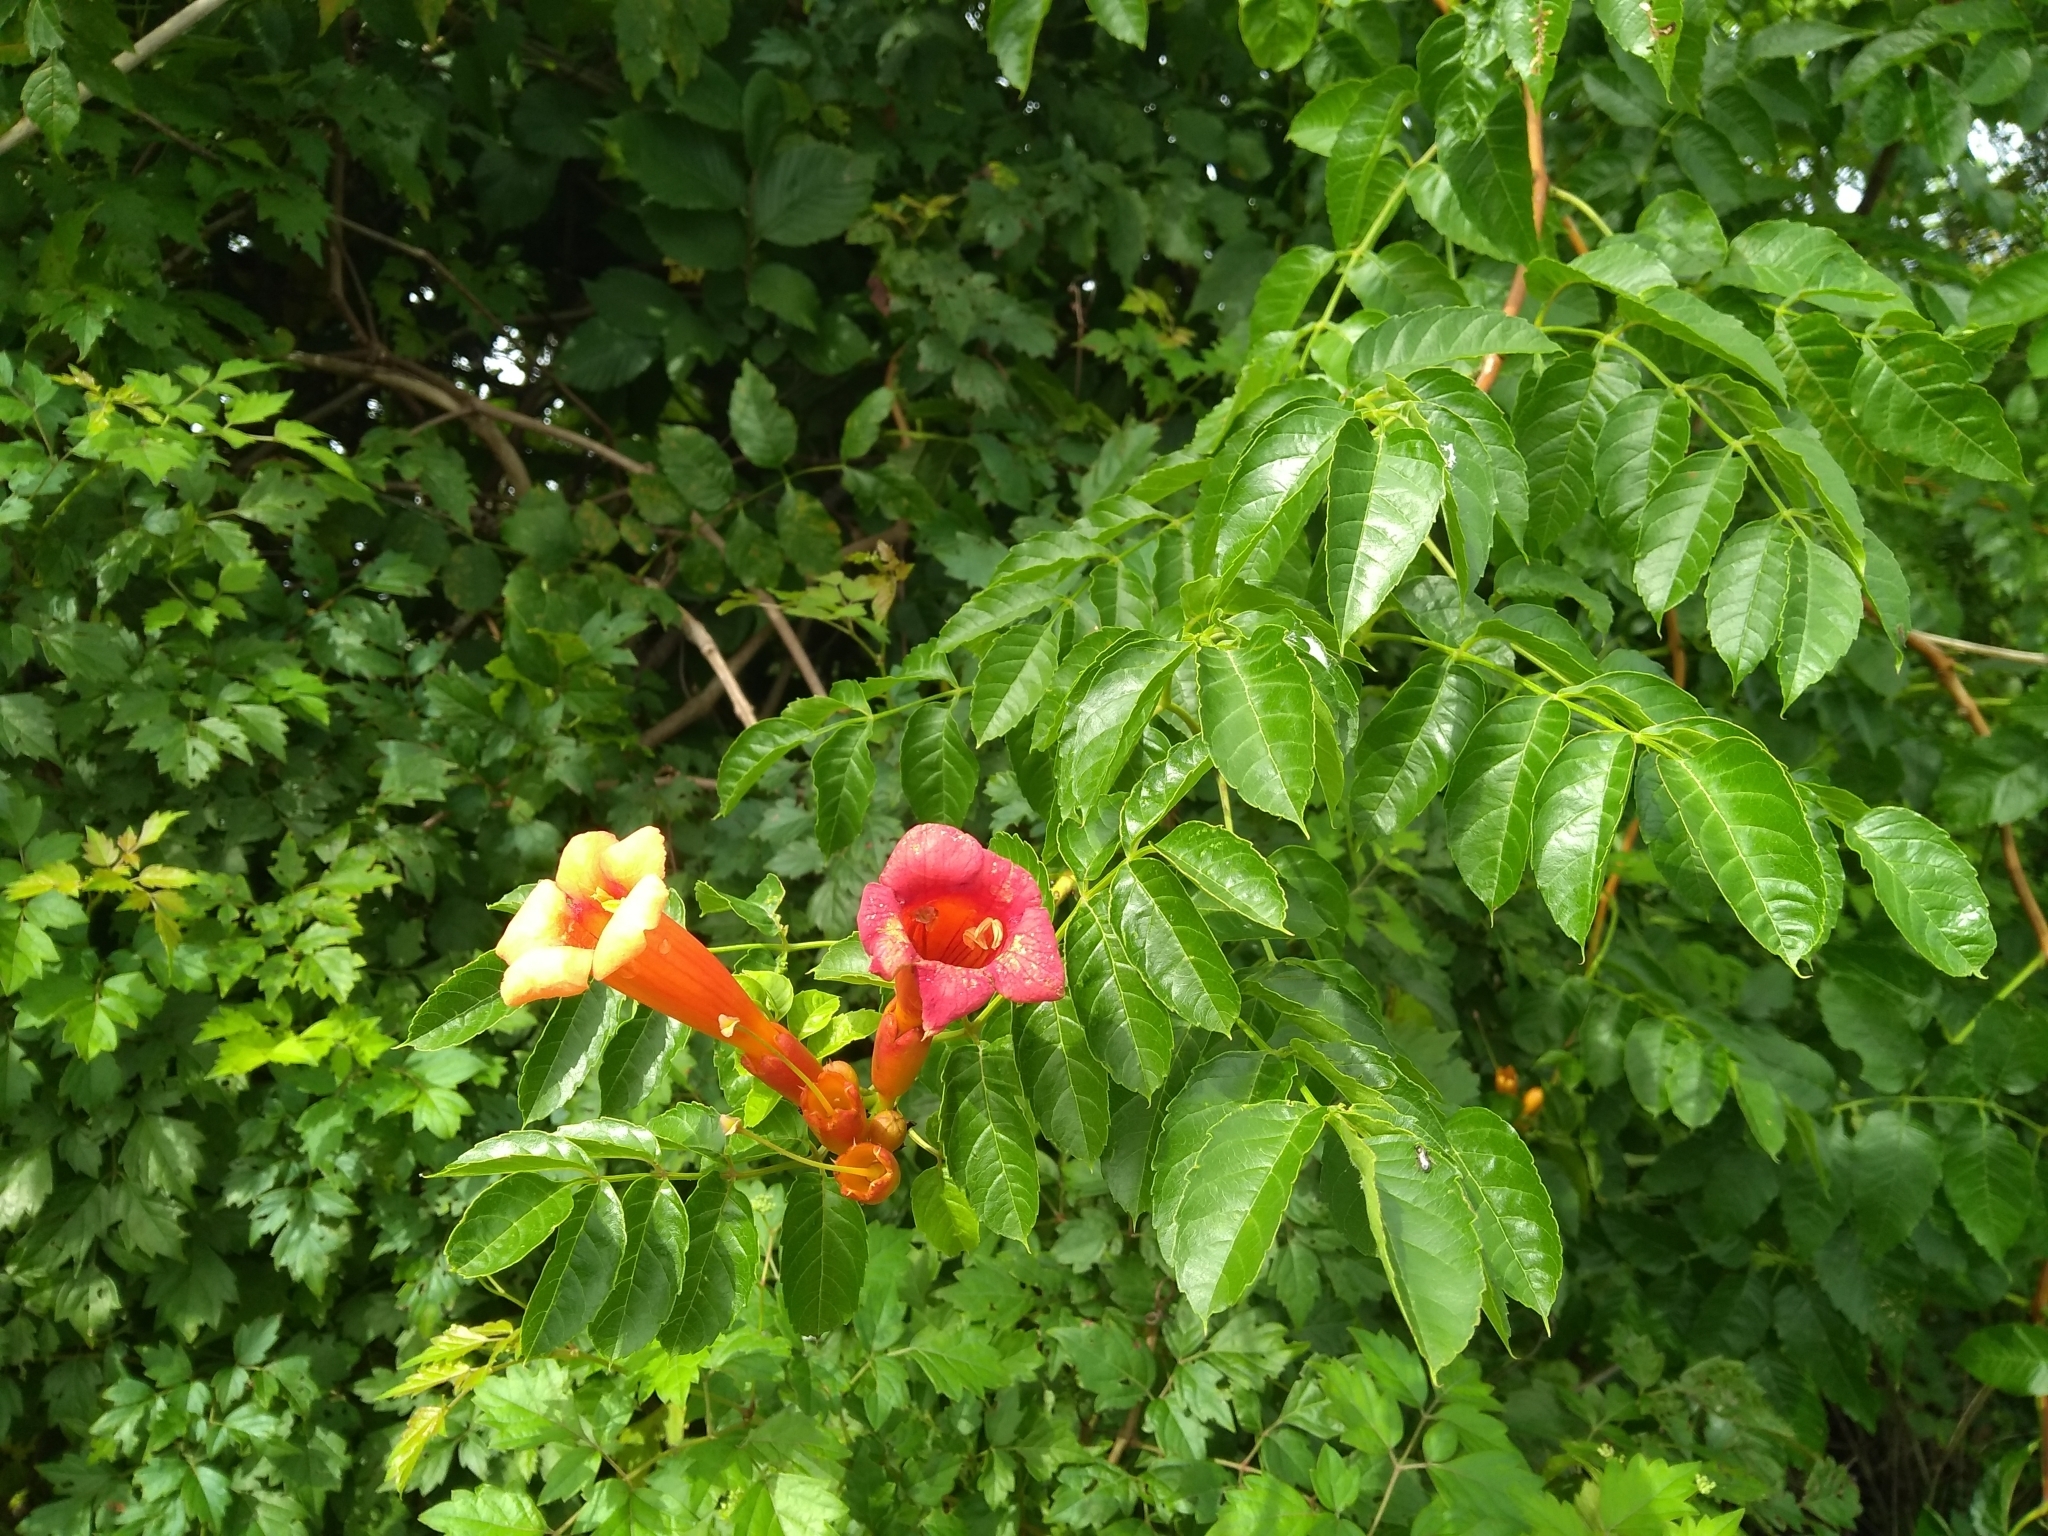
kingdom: Plantae
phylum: Tracheophyta
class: Magnoliopsida
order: Lamiales
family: Bignoniaceae
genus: Campsis
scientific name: Campsis radicans
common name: Trumpet-creeper
